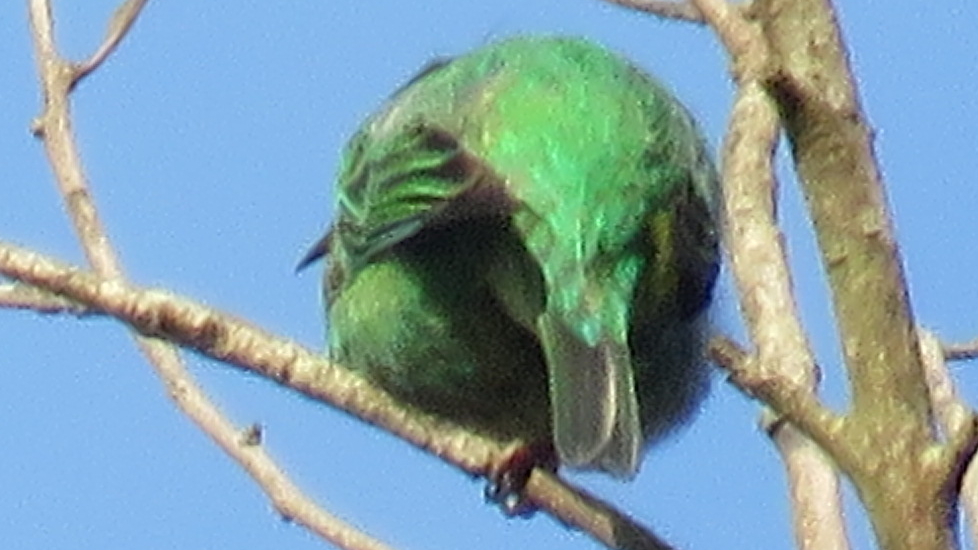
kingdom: Animalia
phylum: Chordata
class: Aves
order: Passeriformes
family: Thraupidae
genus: Dacnis
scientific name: Dacnis cayana
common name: Blue dacnis
